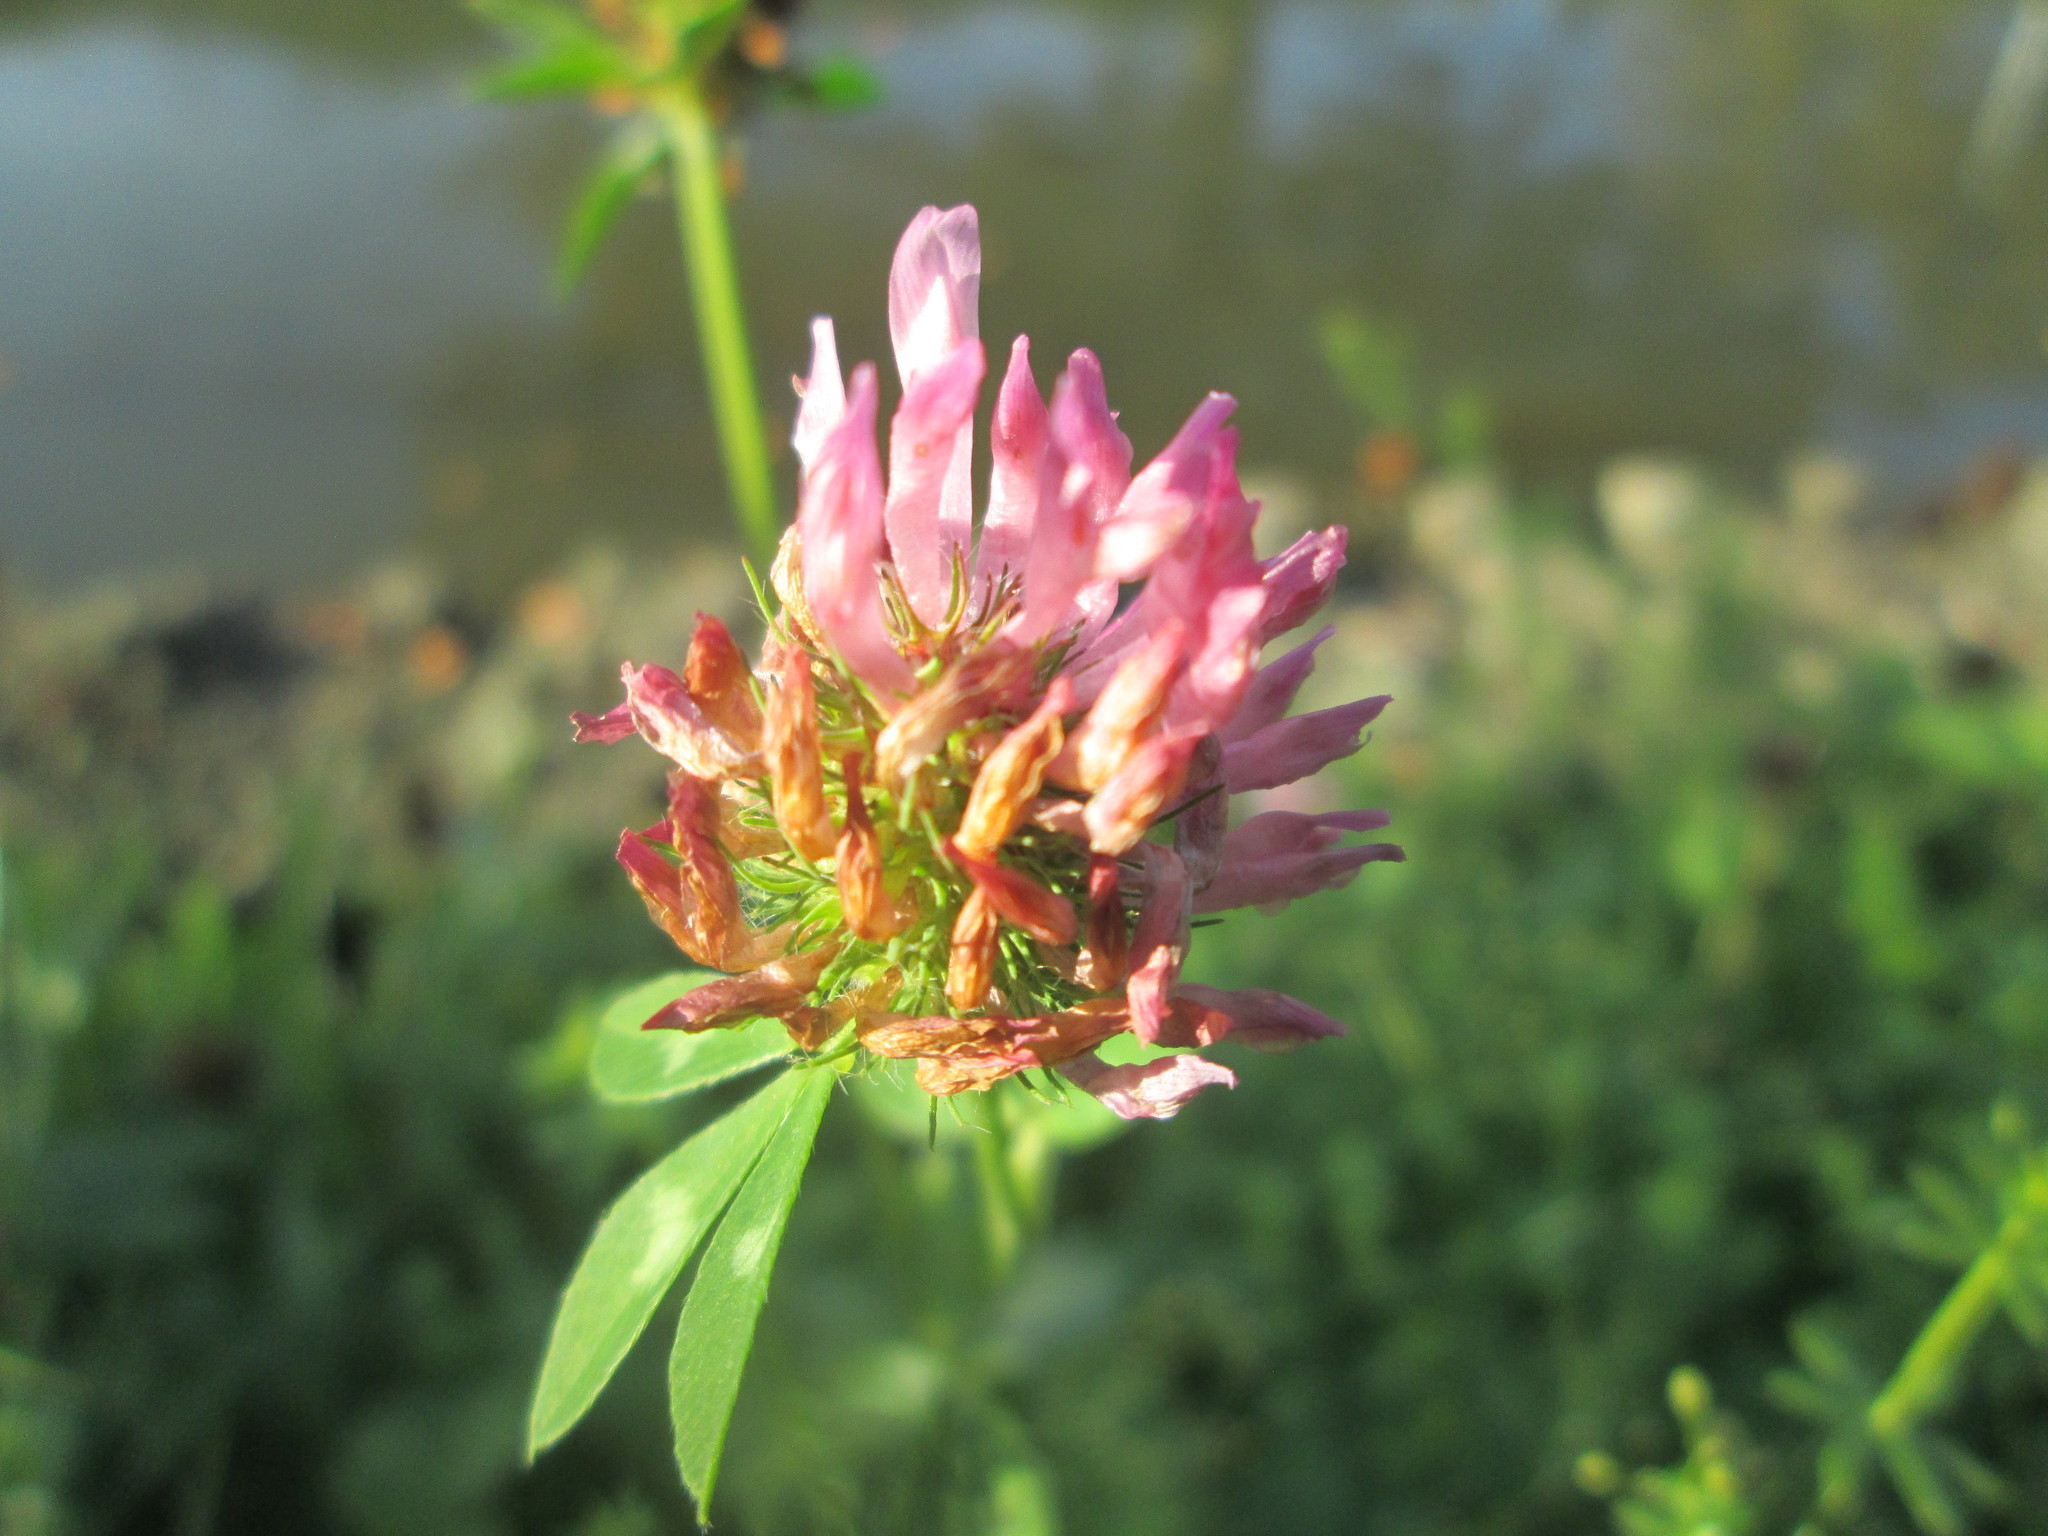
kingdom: Plantae
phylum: Tracheophyta
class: Magnoliopsida
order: Fabales
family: Fabaceae
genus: Trifolium
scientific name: Trifolium pratense
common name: Red clover
